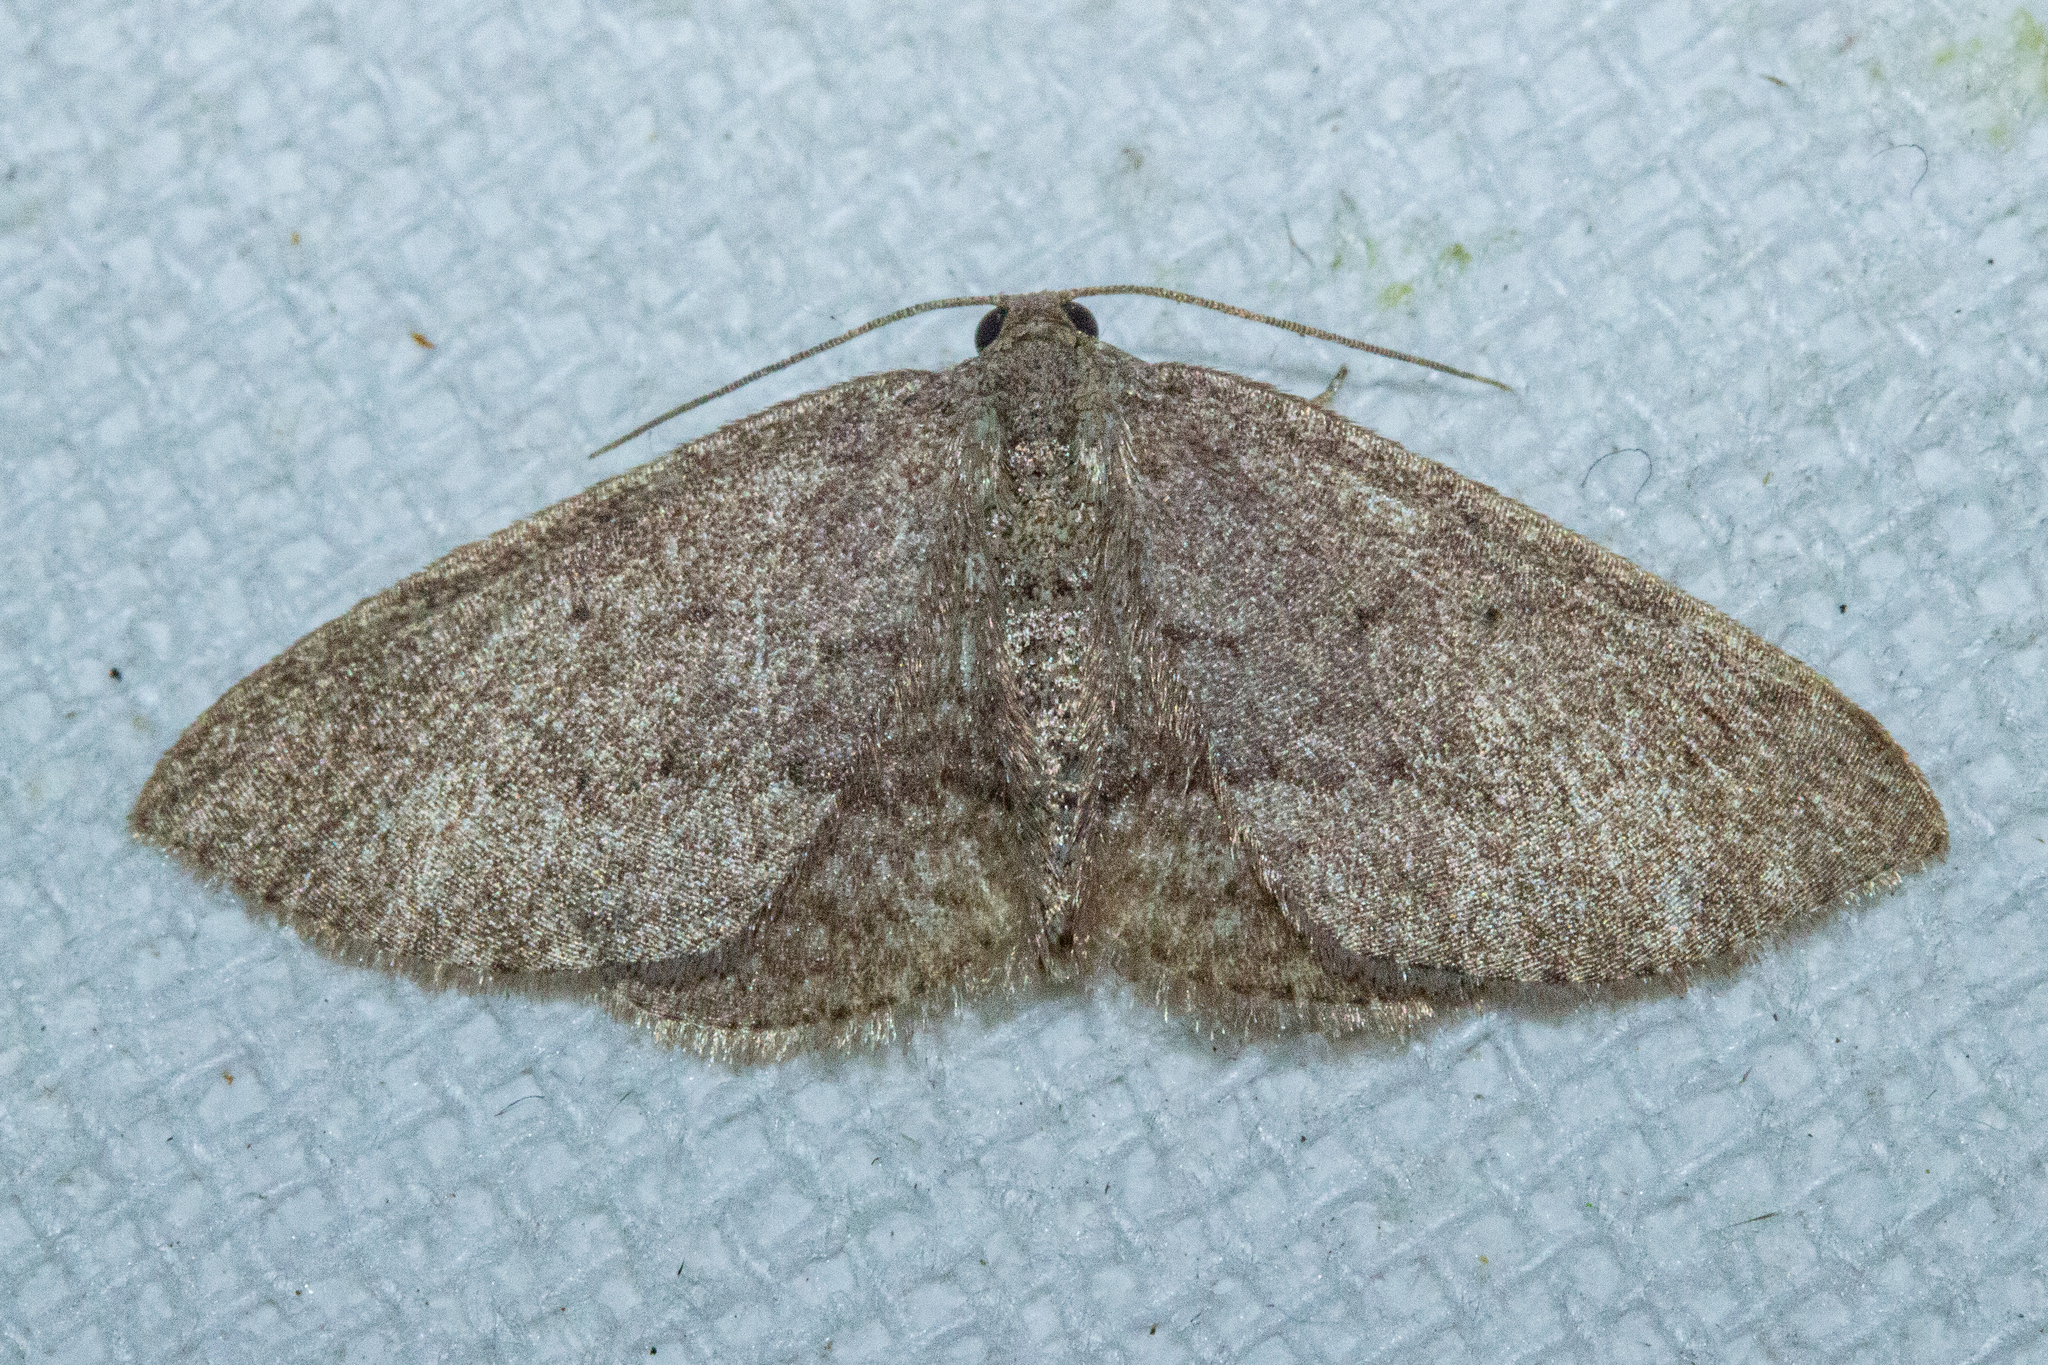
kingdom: Animalia
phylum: Arthropoda
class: Insecta
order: Lepidoptera
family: Geometridae
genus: Poecilasthena
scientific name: Poecilasthena schistaria
